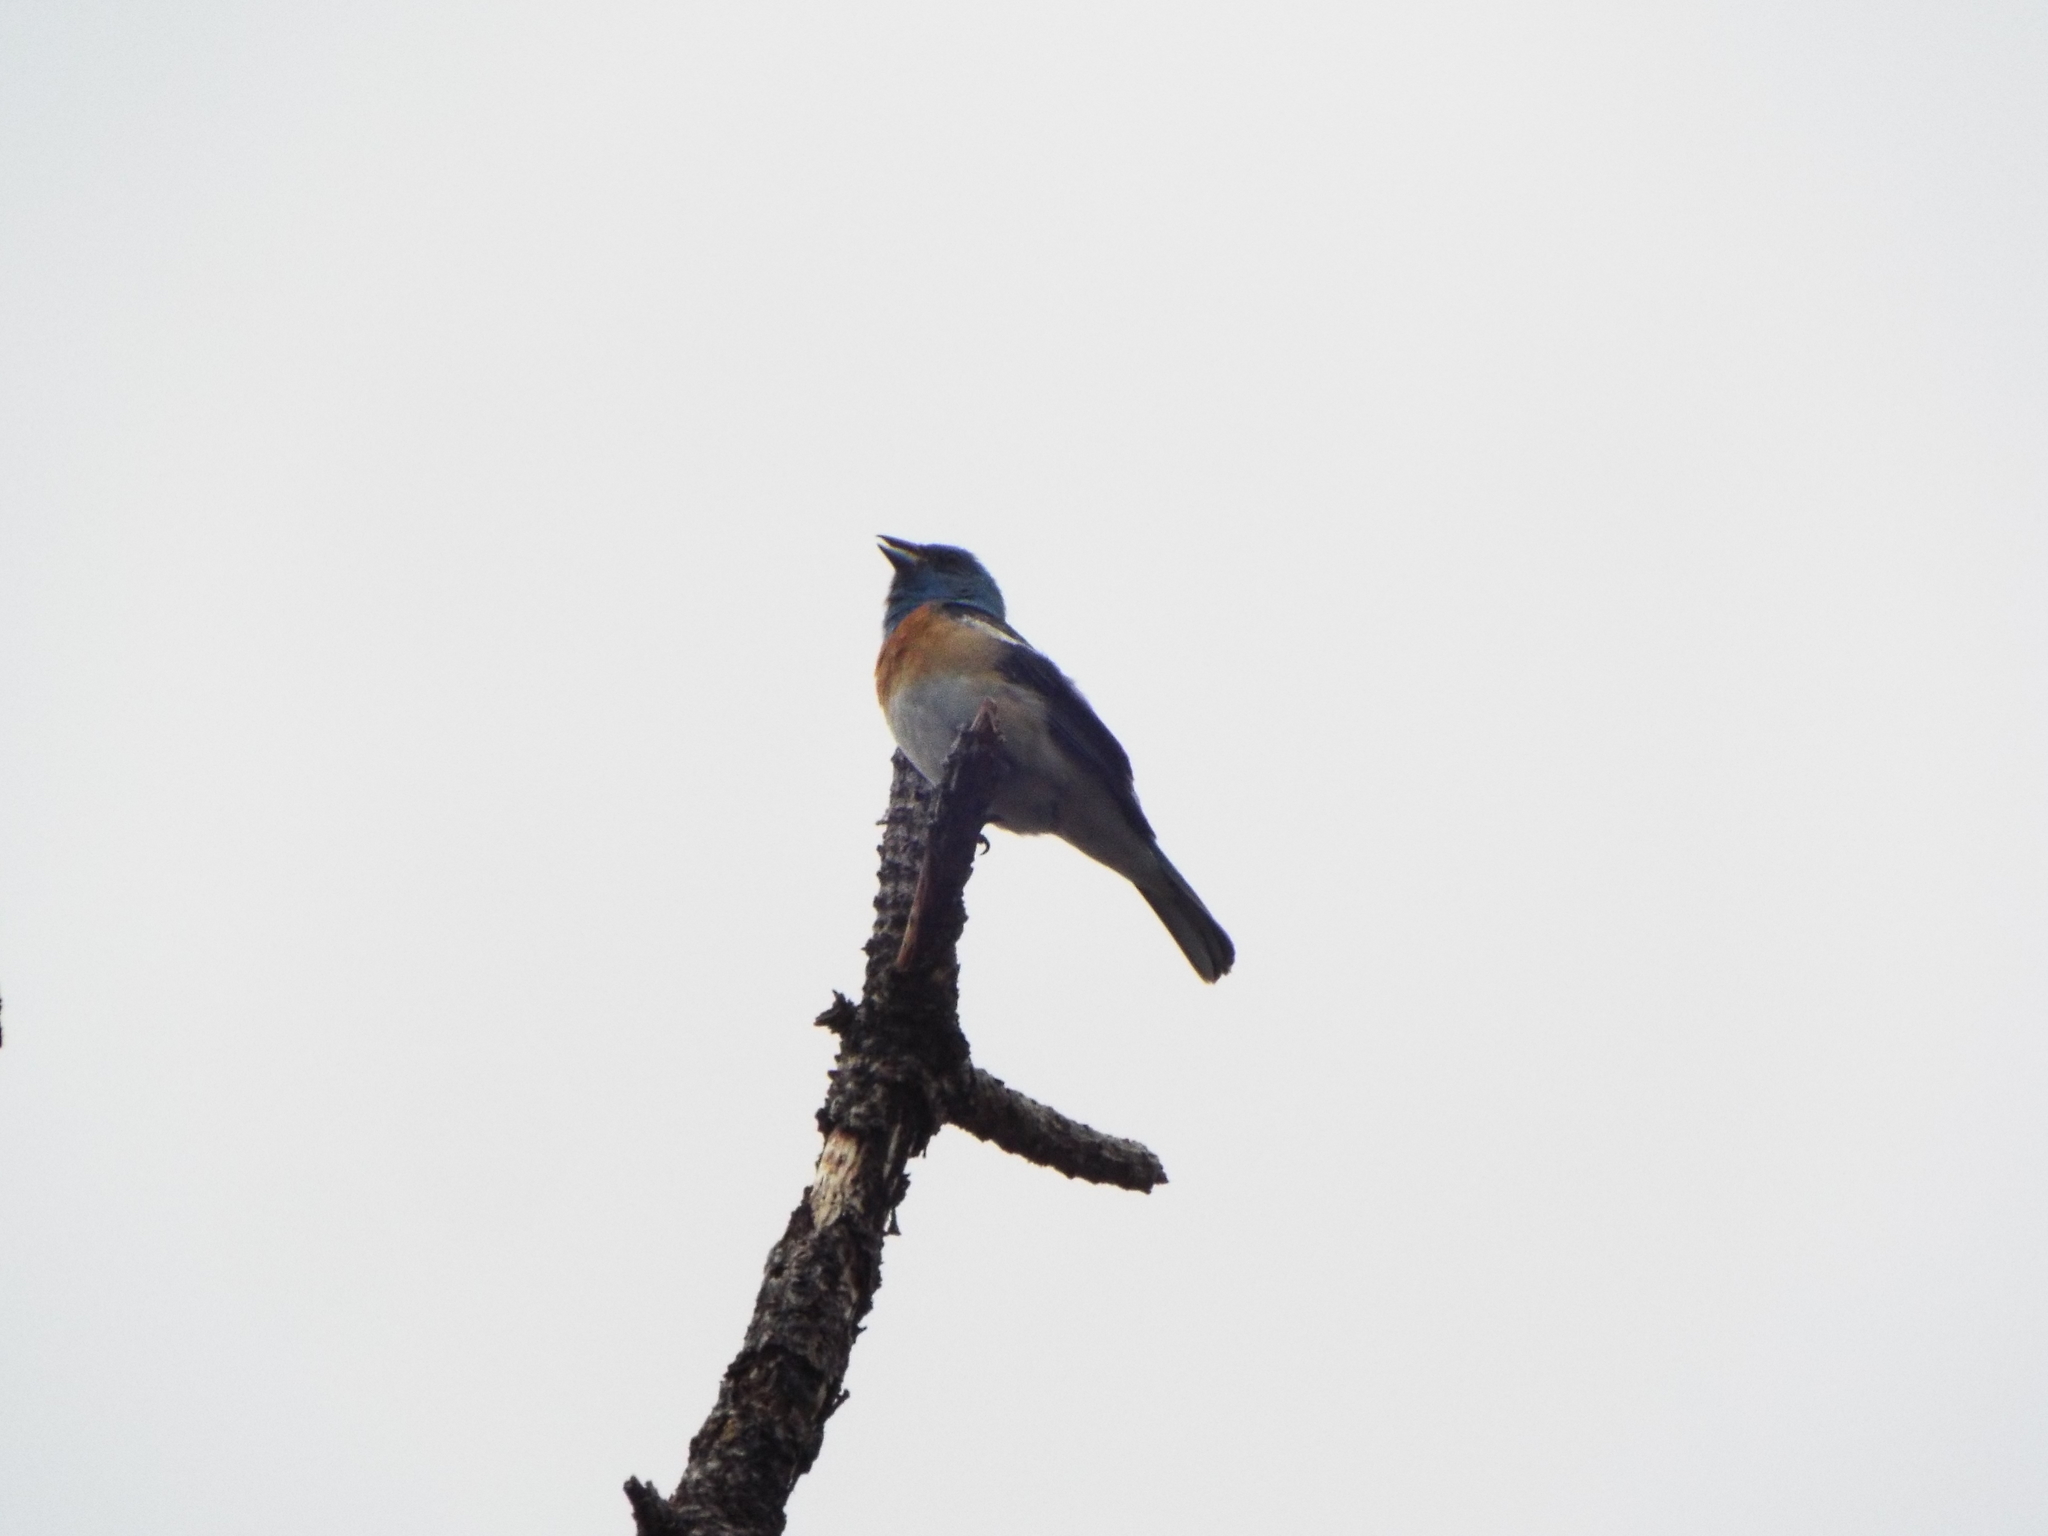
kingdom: Animalia
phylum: Chordata
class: Aves
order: Passeriformes
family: Cardinalidae
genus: Passerina
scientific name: Passerina amoena
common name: Lazuli bunting
